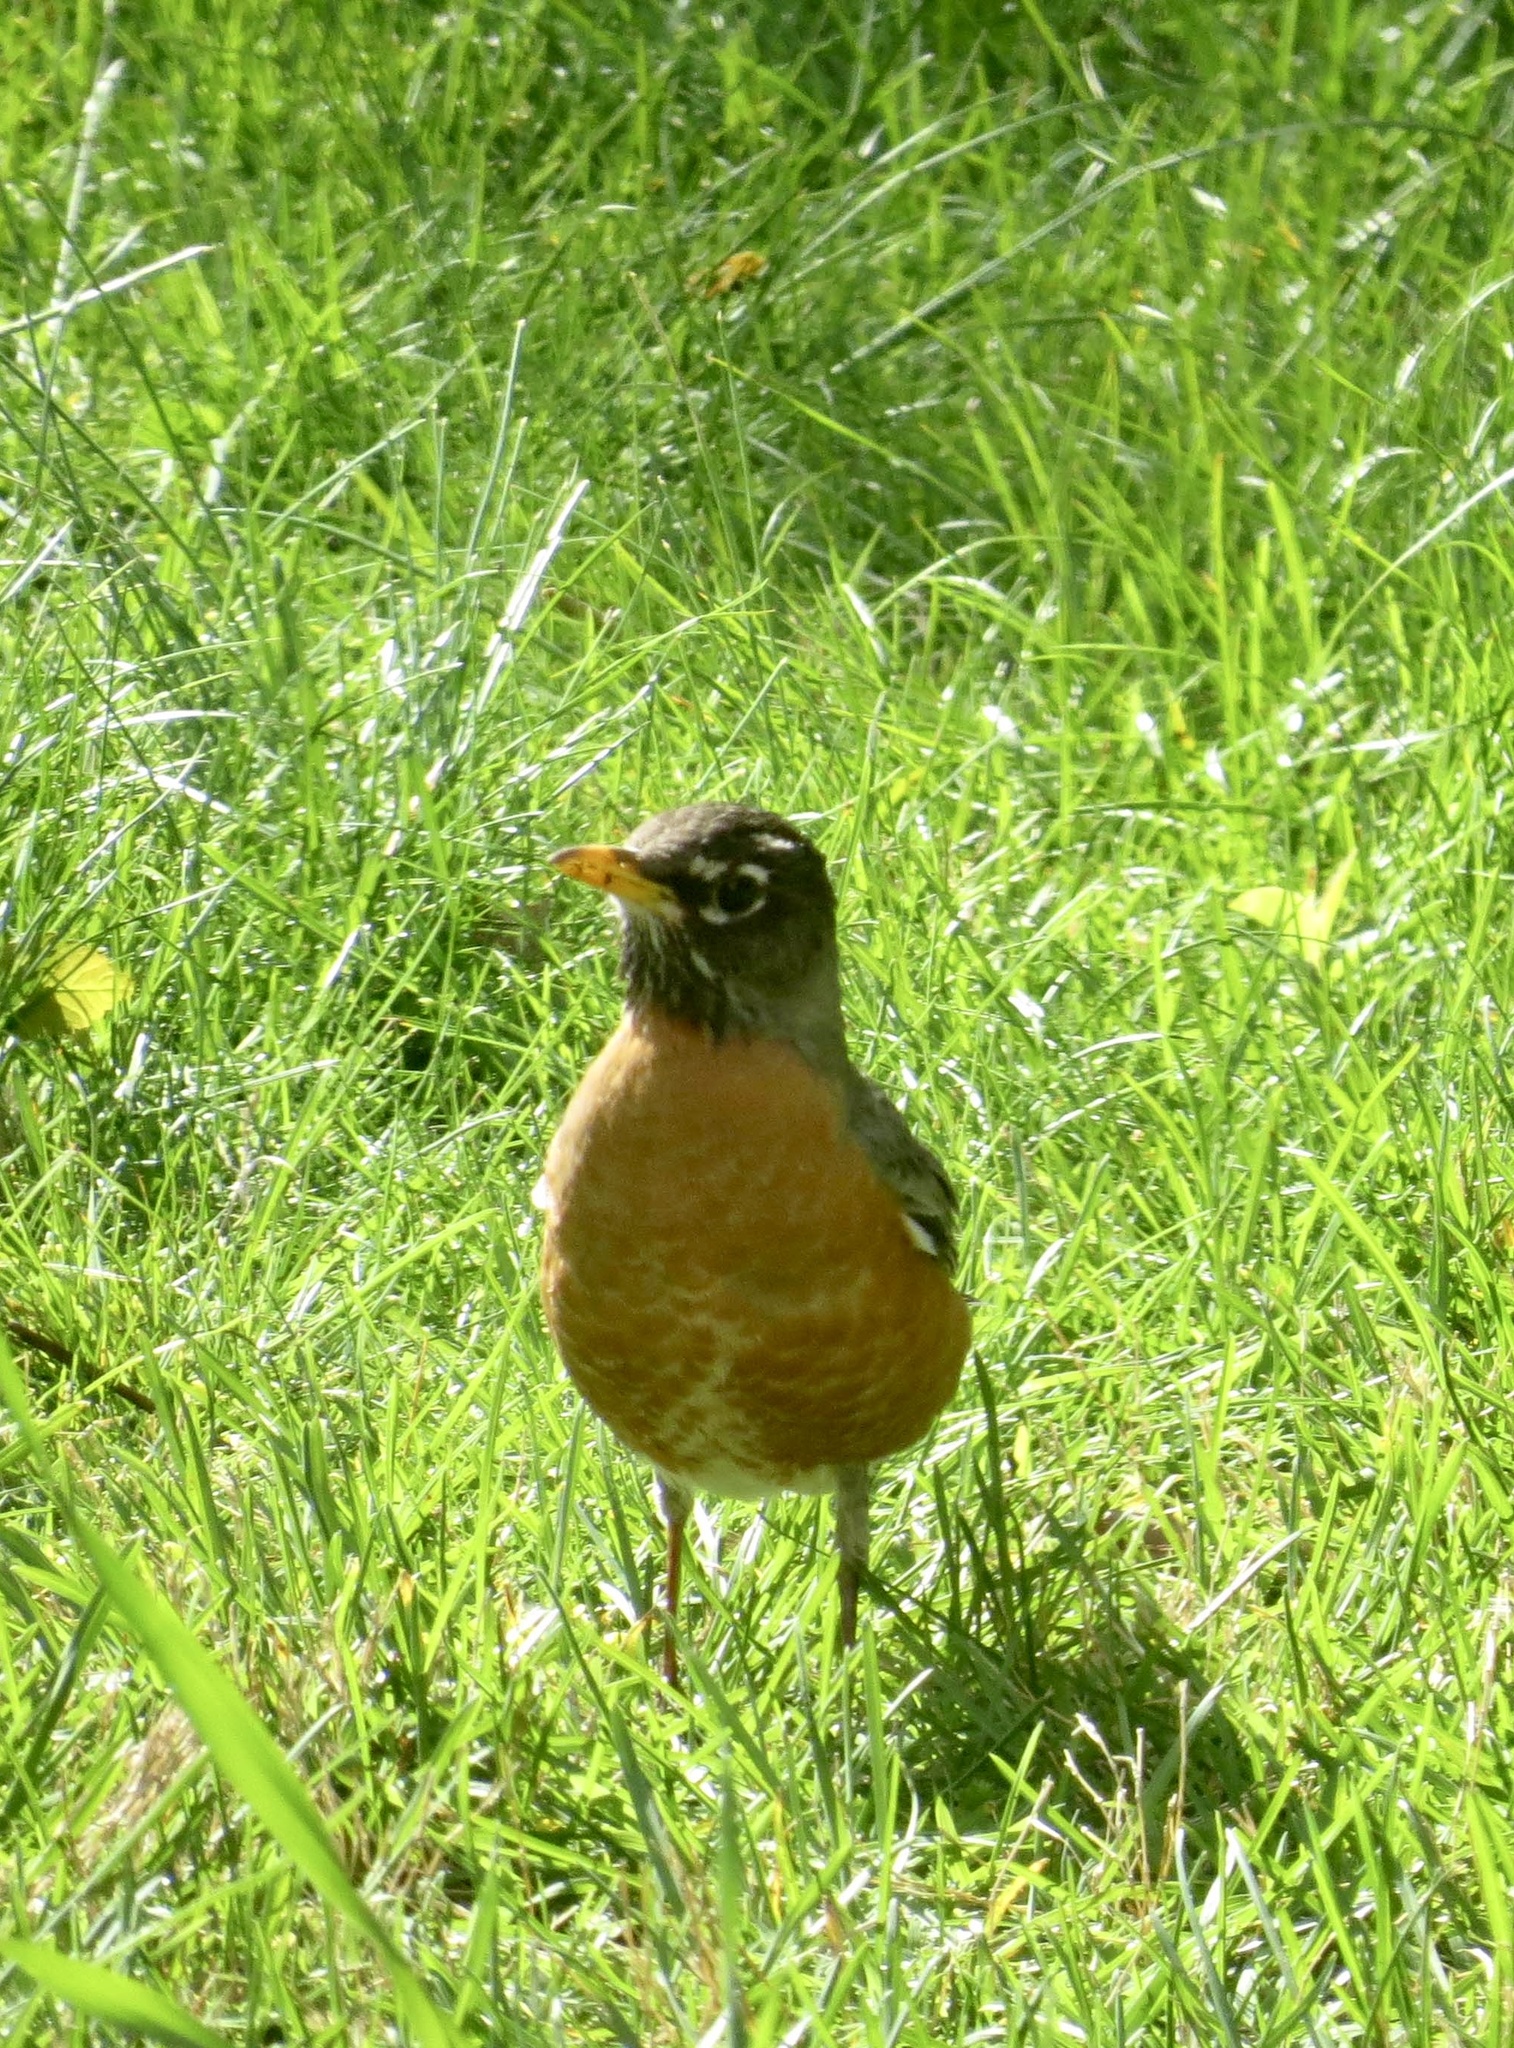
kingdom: Animalia
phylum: Chordata
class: Aves
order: Passeriformes
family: Turdidae
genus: Turdus
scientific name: Turdus migratorius
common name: American robin
